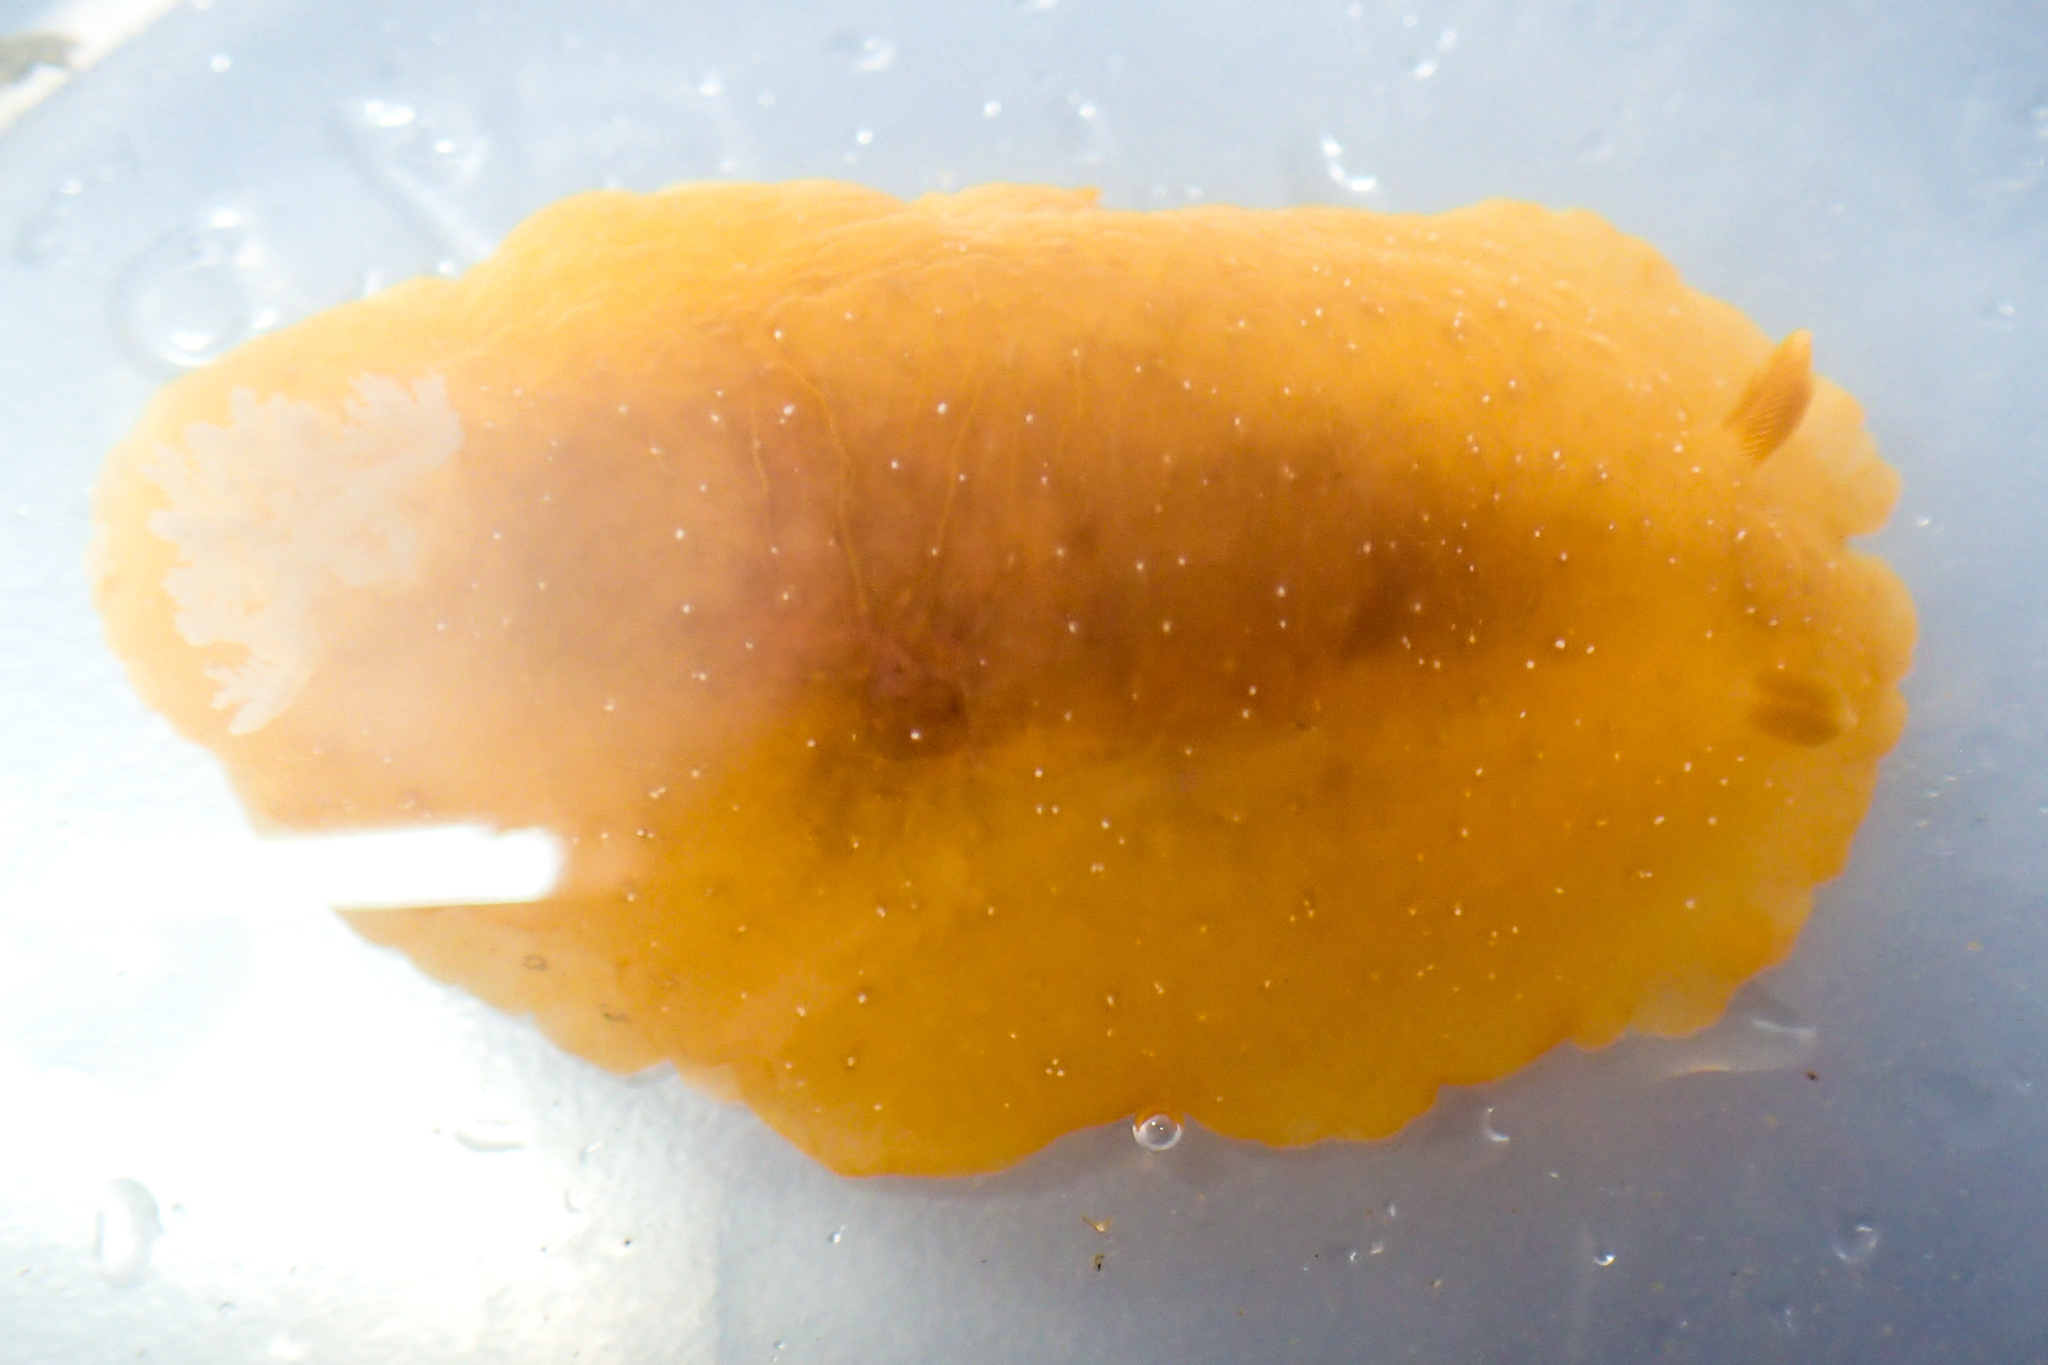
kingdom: Animalia
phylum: Mollusca
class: Gastropoda
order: Nudibranchia
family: Dendrodorididae
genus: Doriopsilla
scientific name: Doriopsilla fulva
